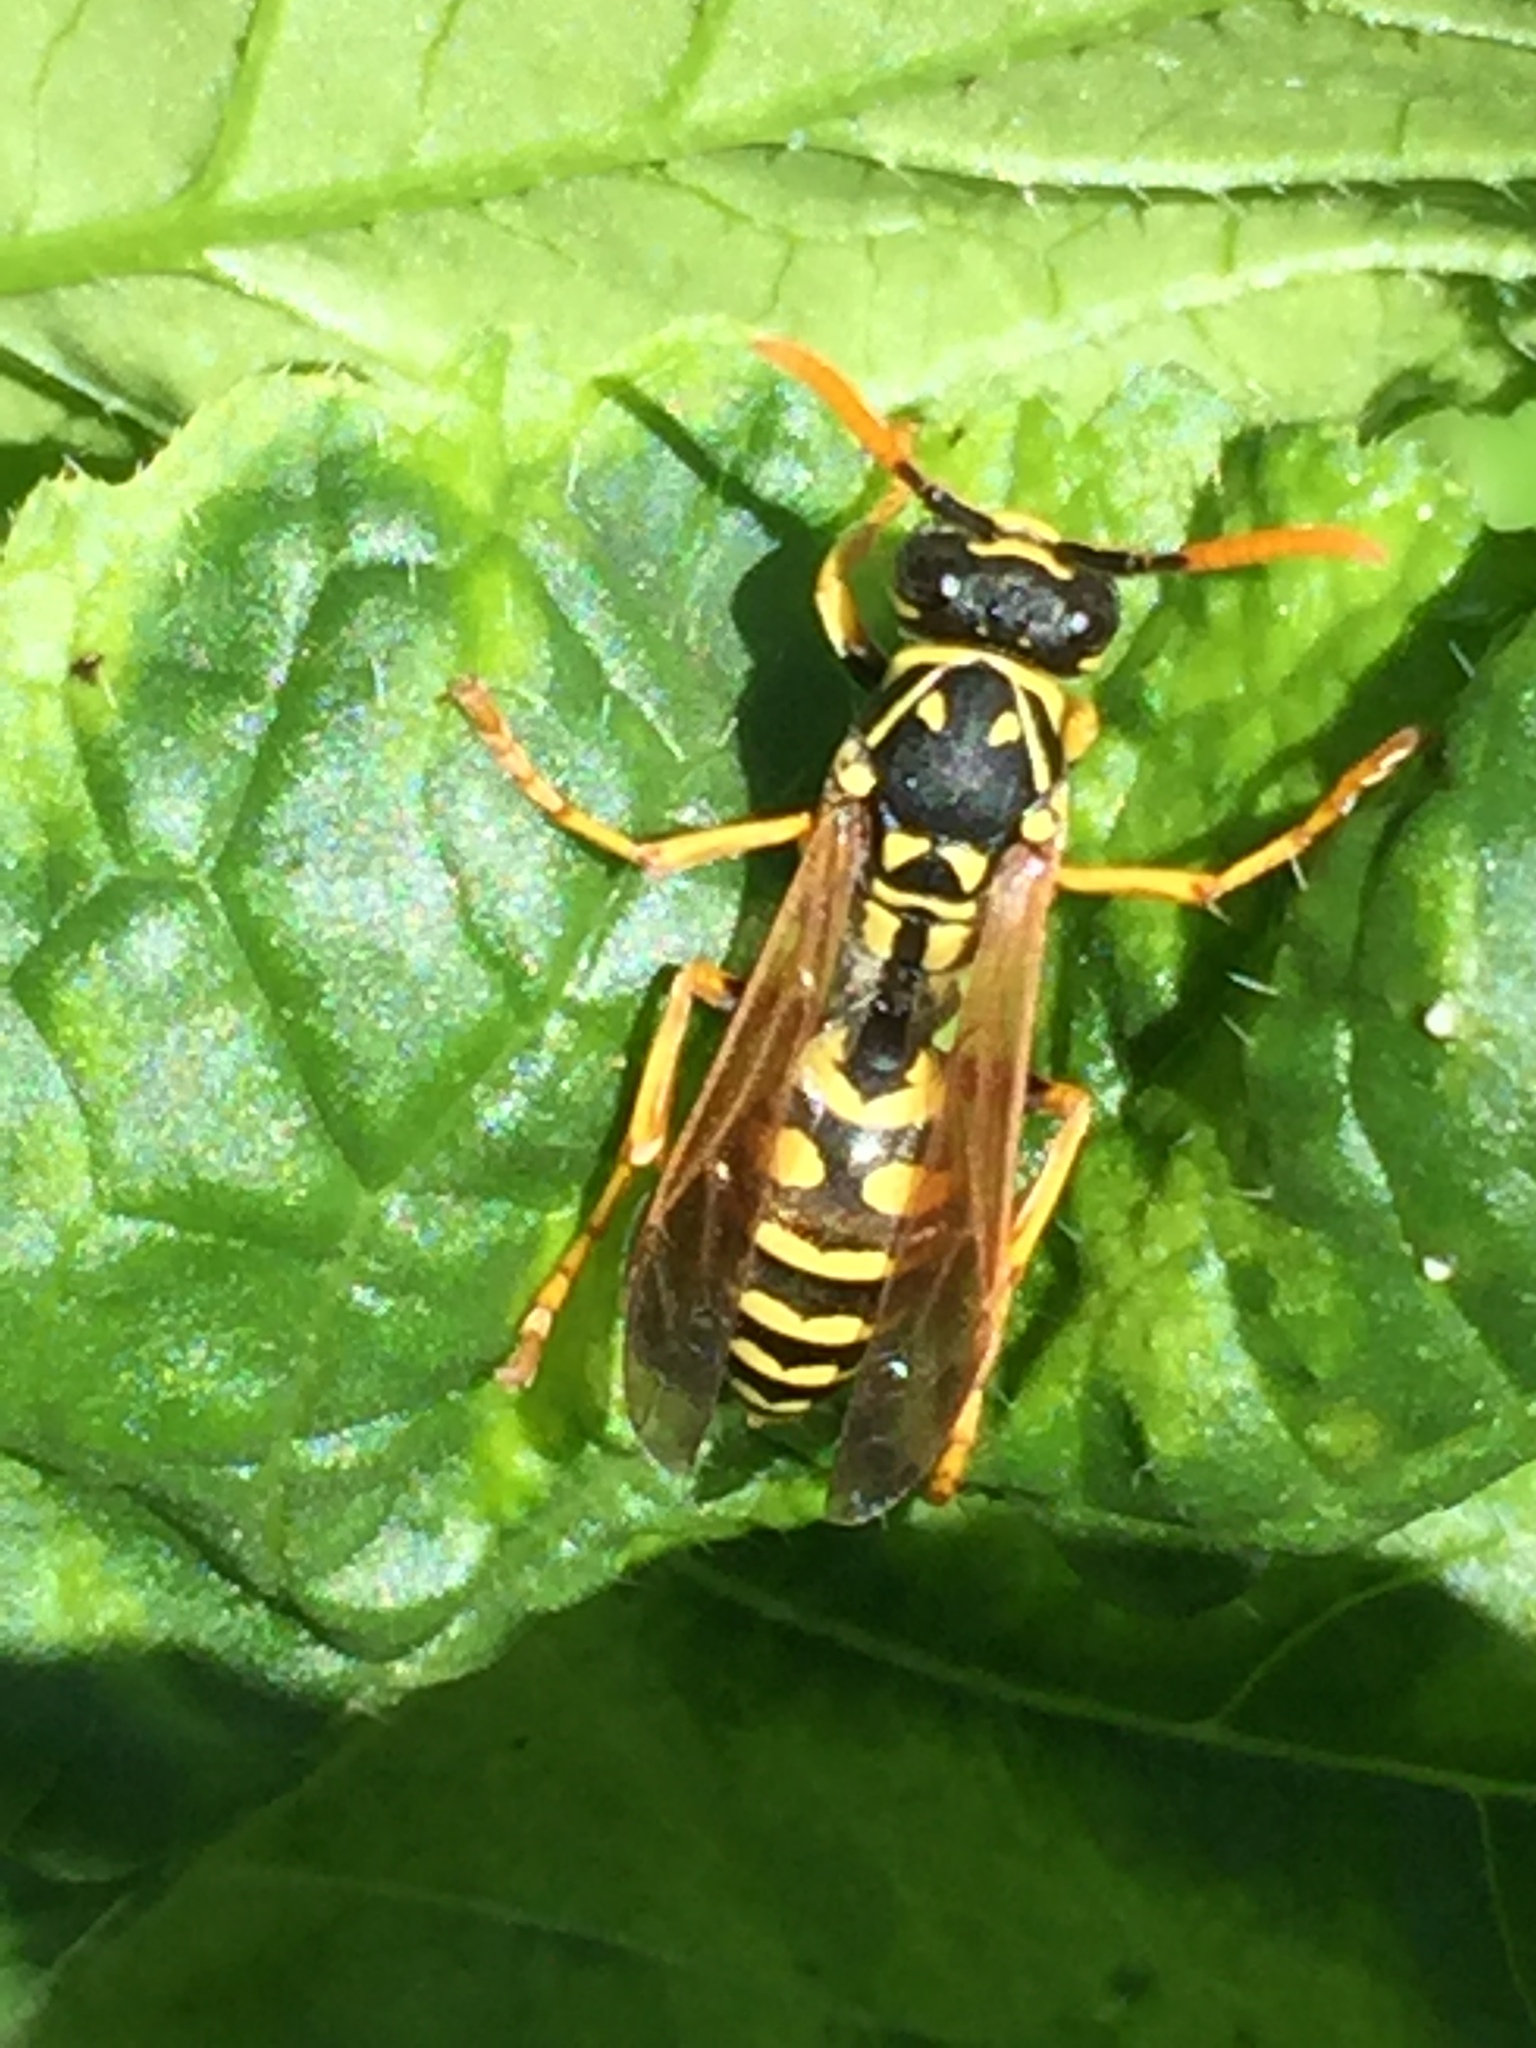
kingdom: Animalia
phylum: Arthropoda
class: Insecta
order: Hymenoptera
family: Eumenidae
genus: Polistes
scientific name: Polistes dominula
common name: Paper wasp
